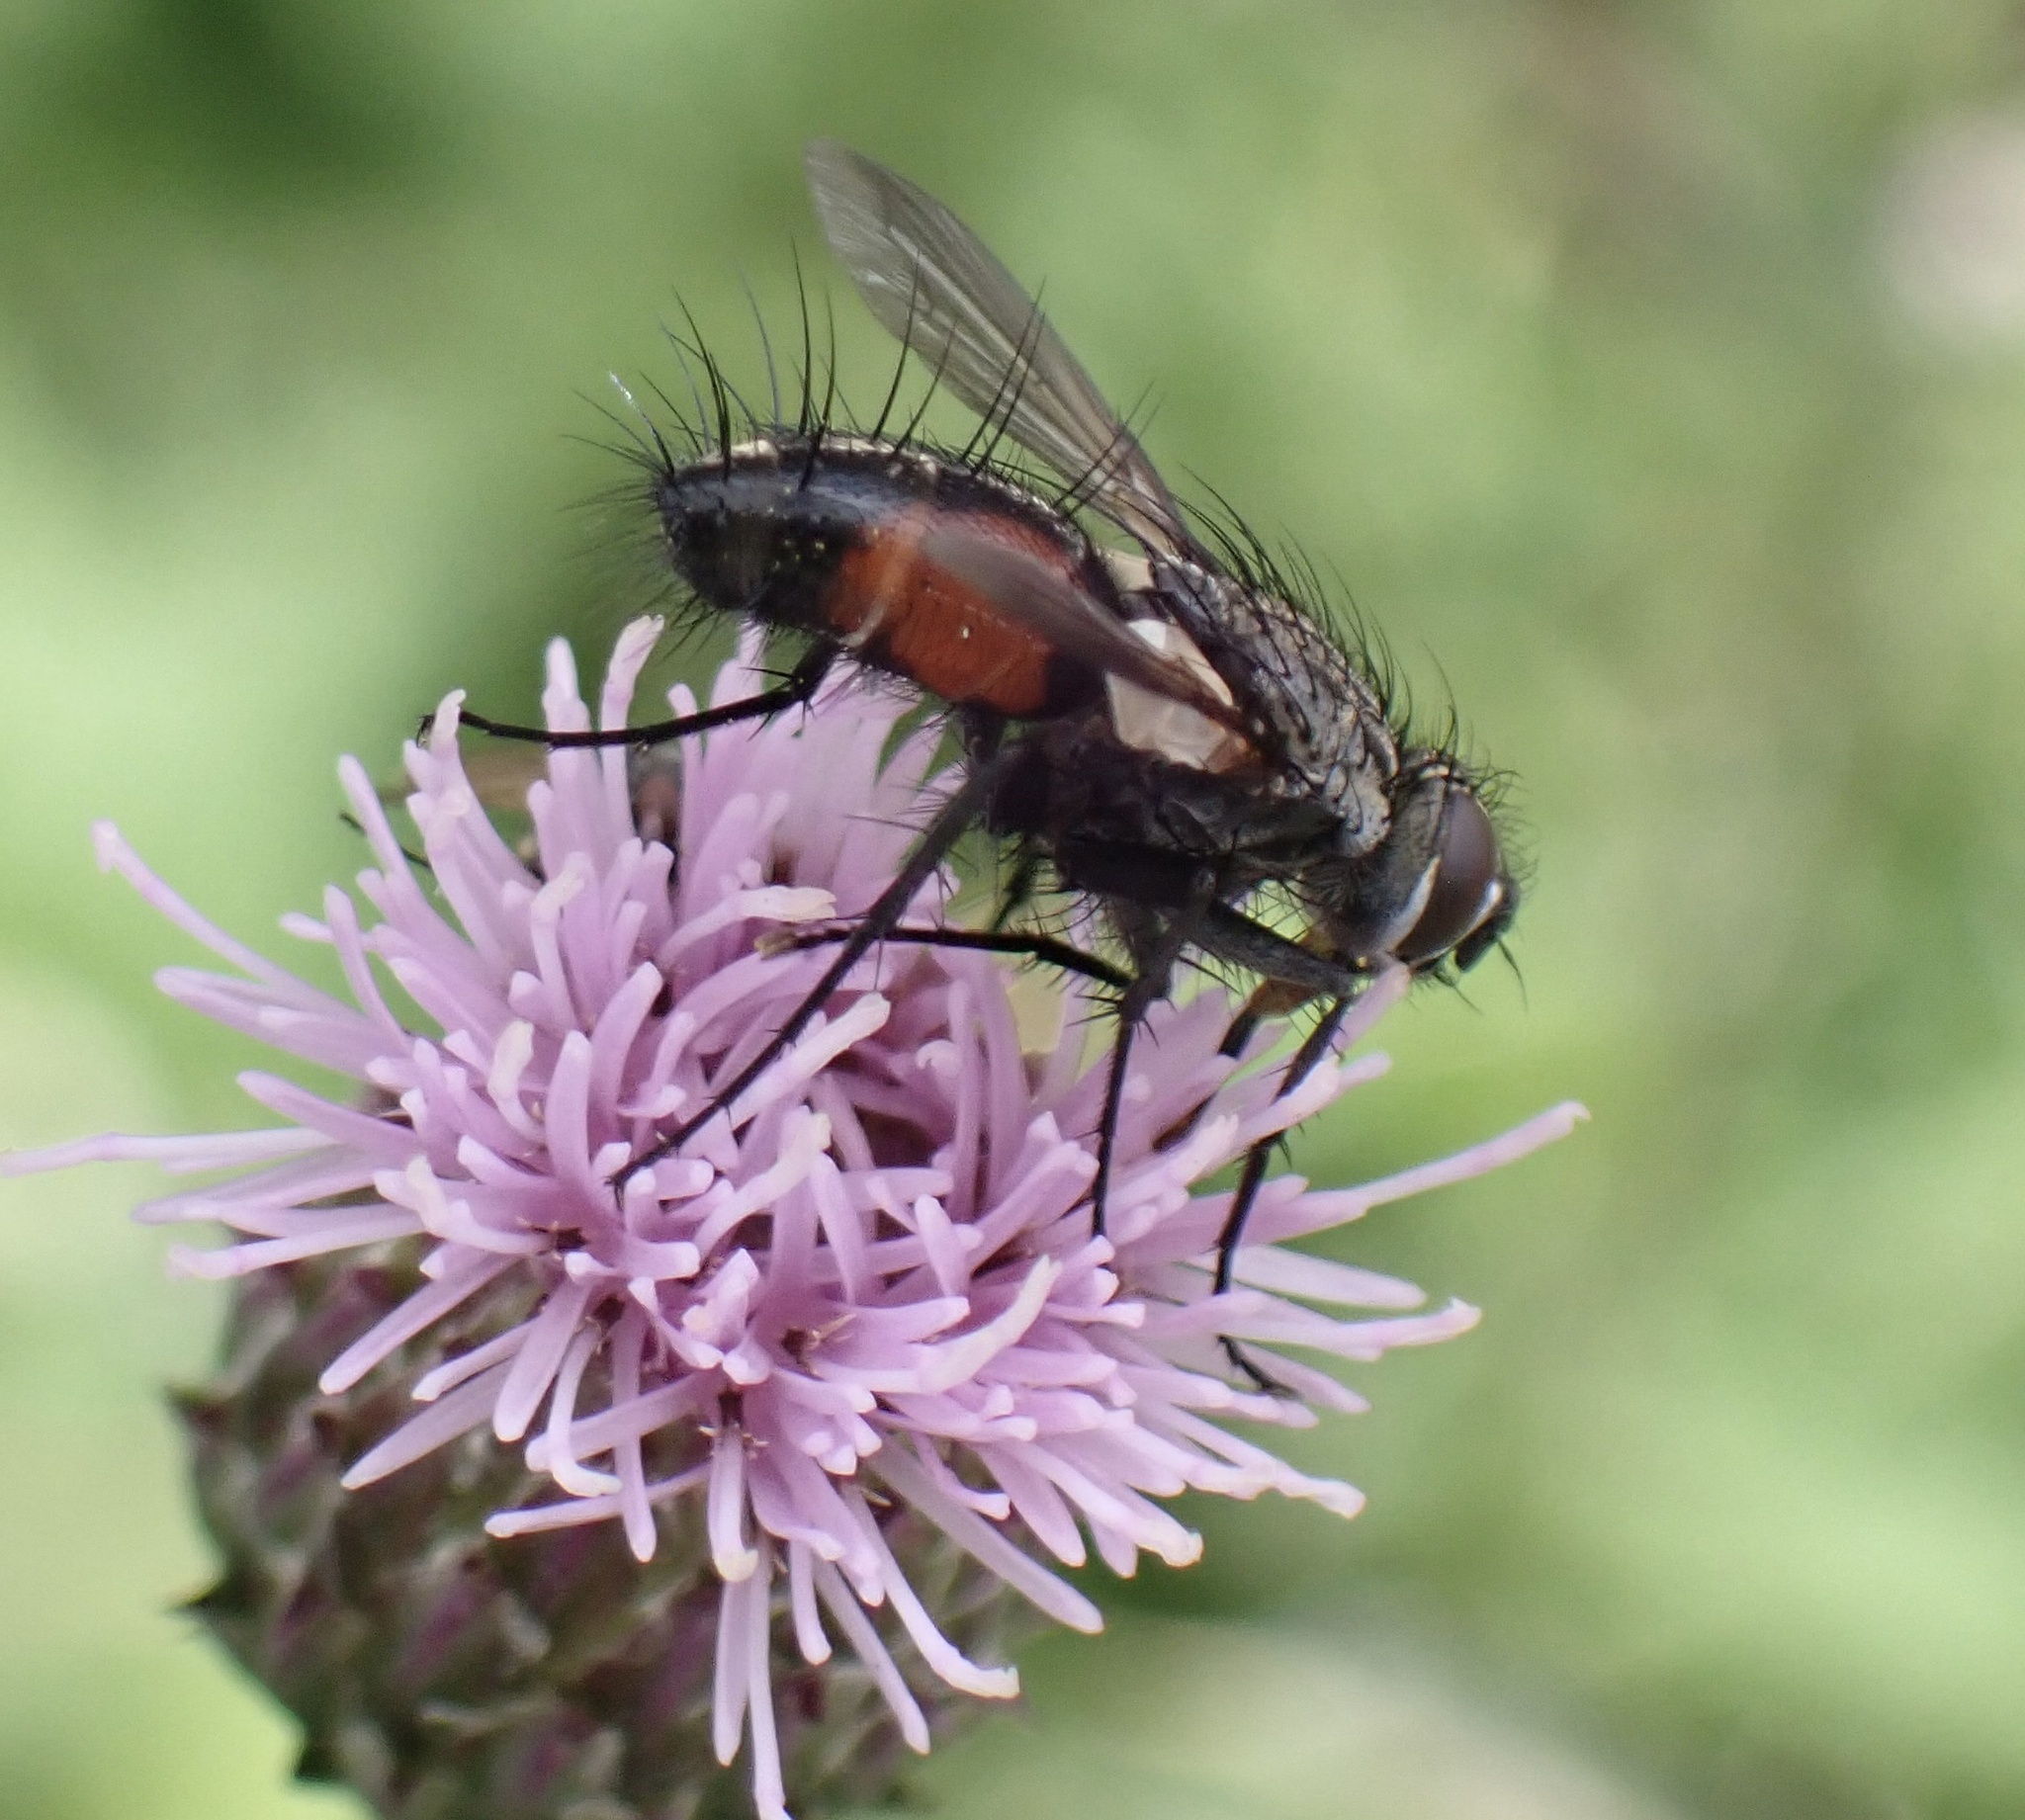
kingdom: Animalia
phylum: Arthropoda
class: Insecta
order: Diptera
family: Tachinidae
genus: Eriothrix
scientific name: Eriothrix rufomaculatus
